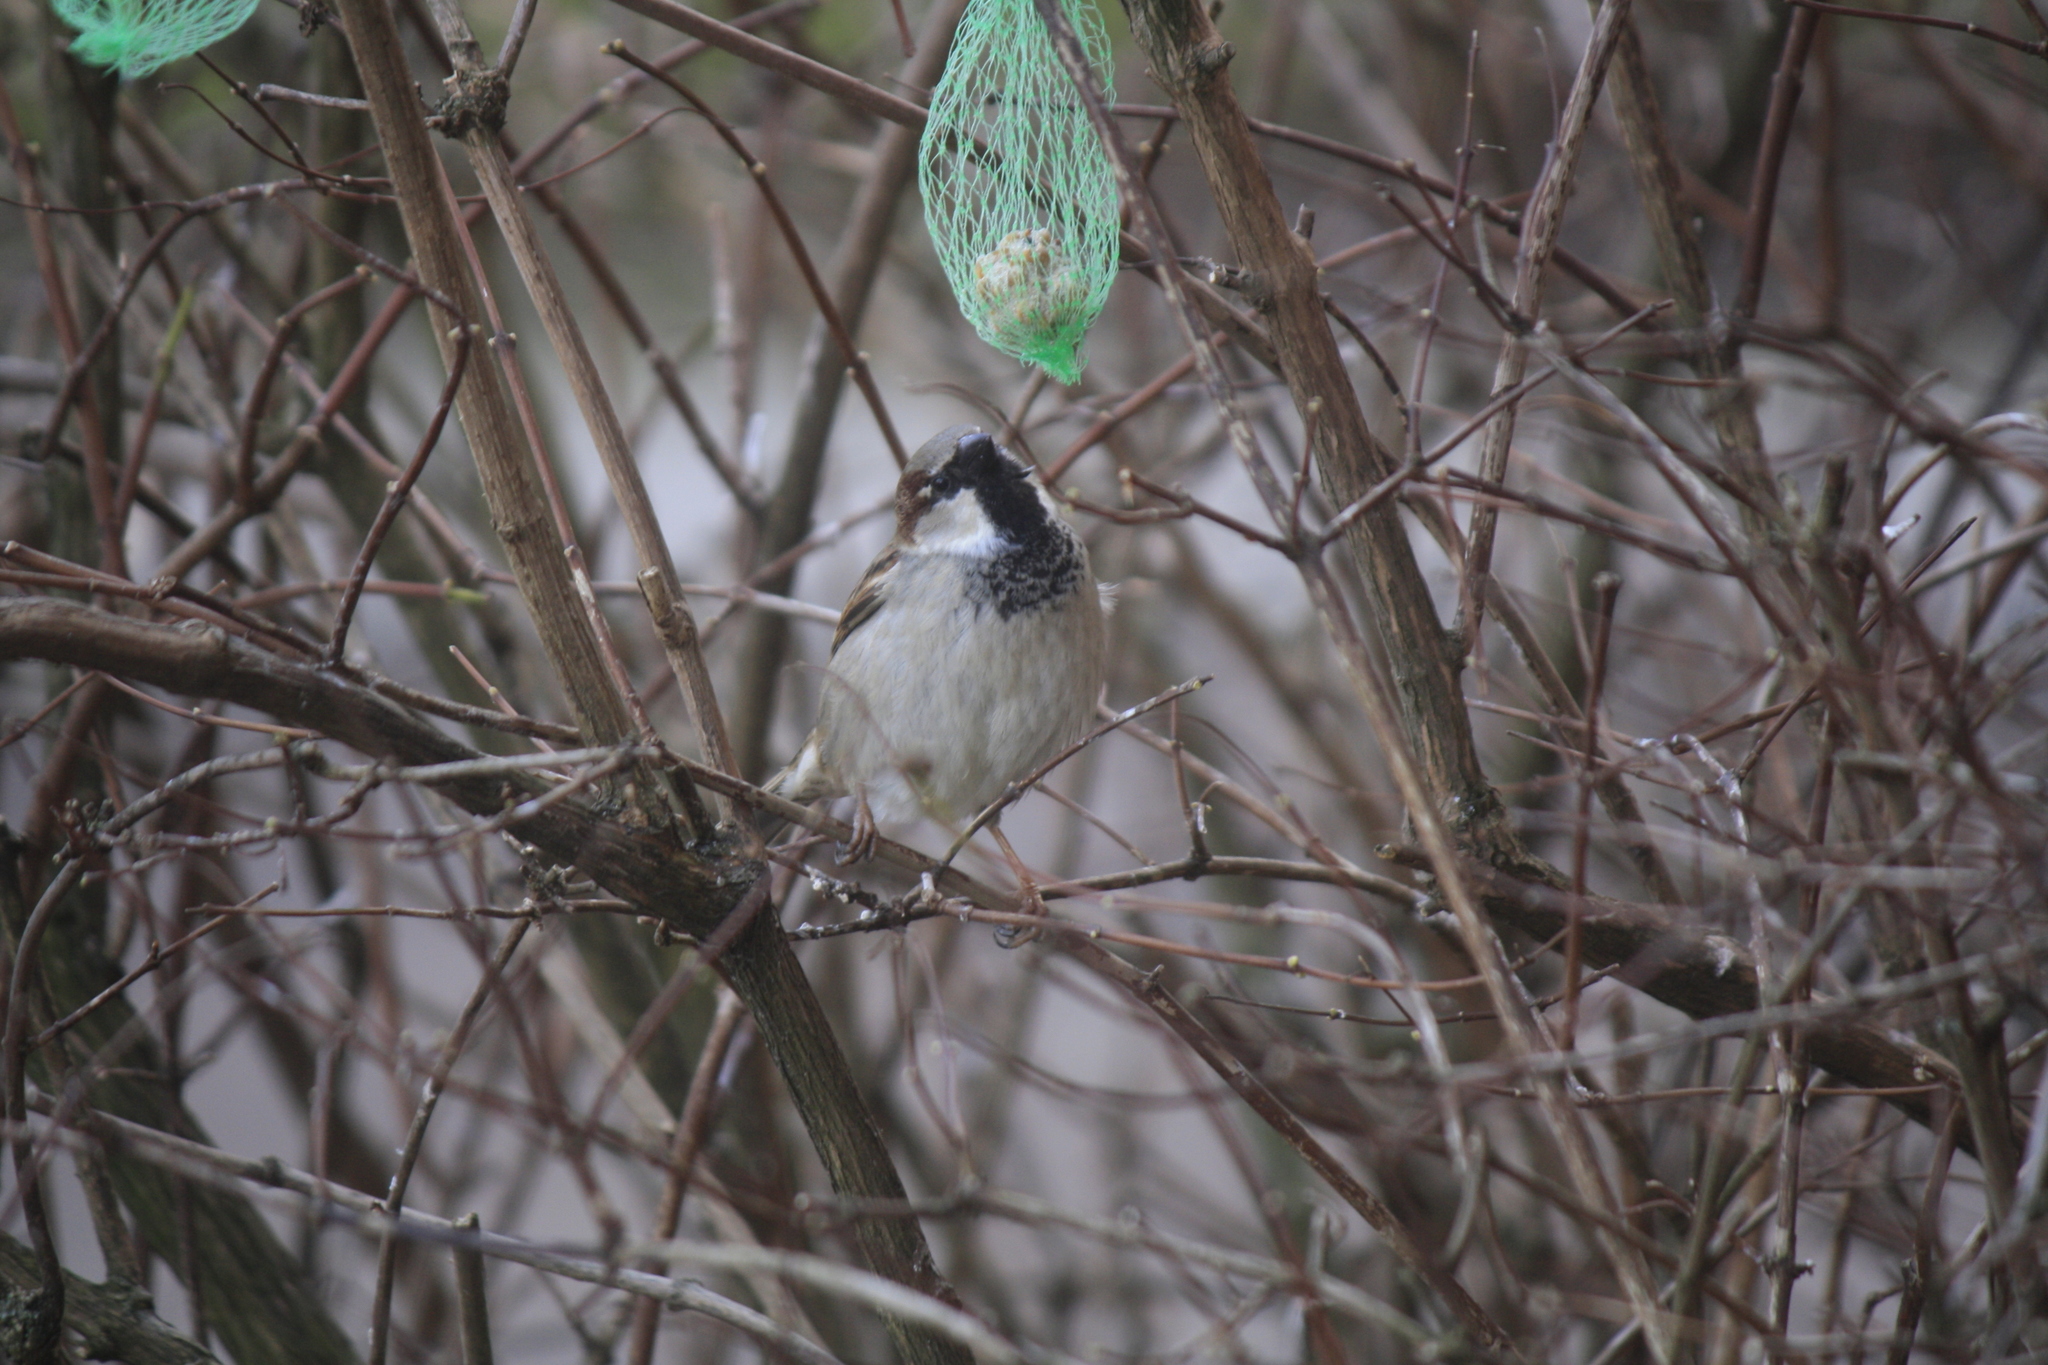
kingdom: Animalia
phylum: Chordata
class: Aves
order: Passeriformes
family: Passeridae
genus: Passer
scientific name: Passer domesticus
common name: House sparrow
